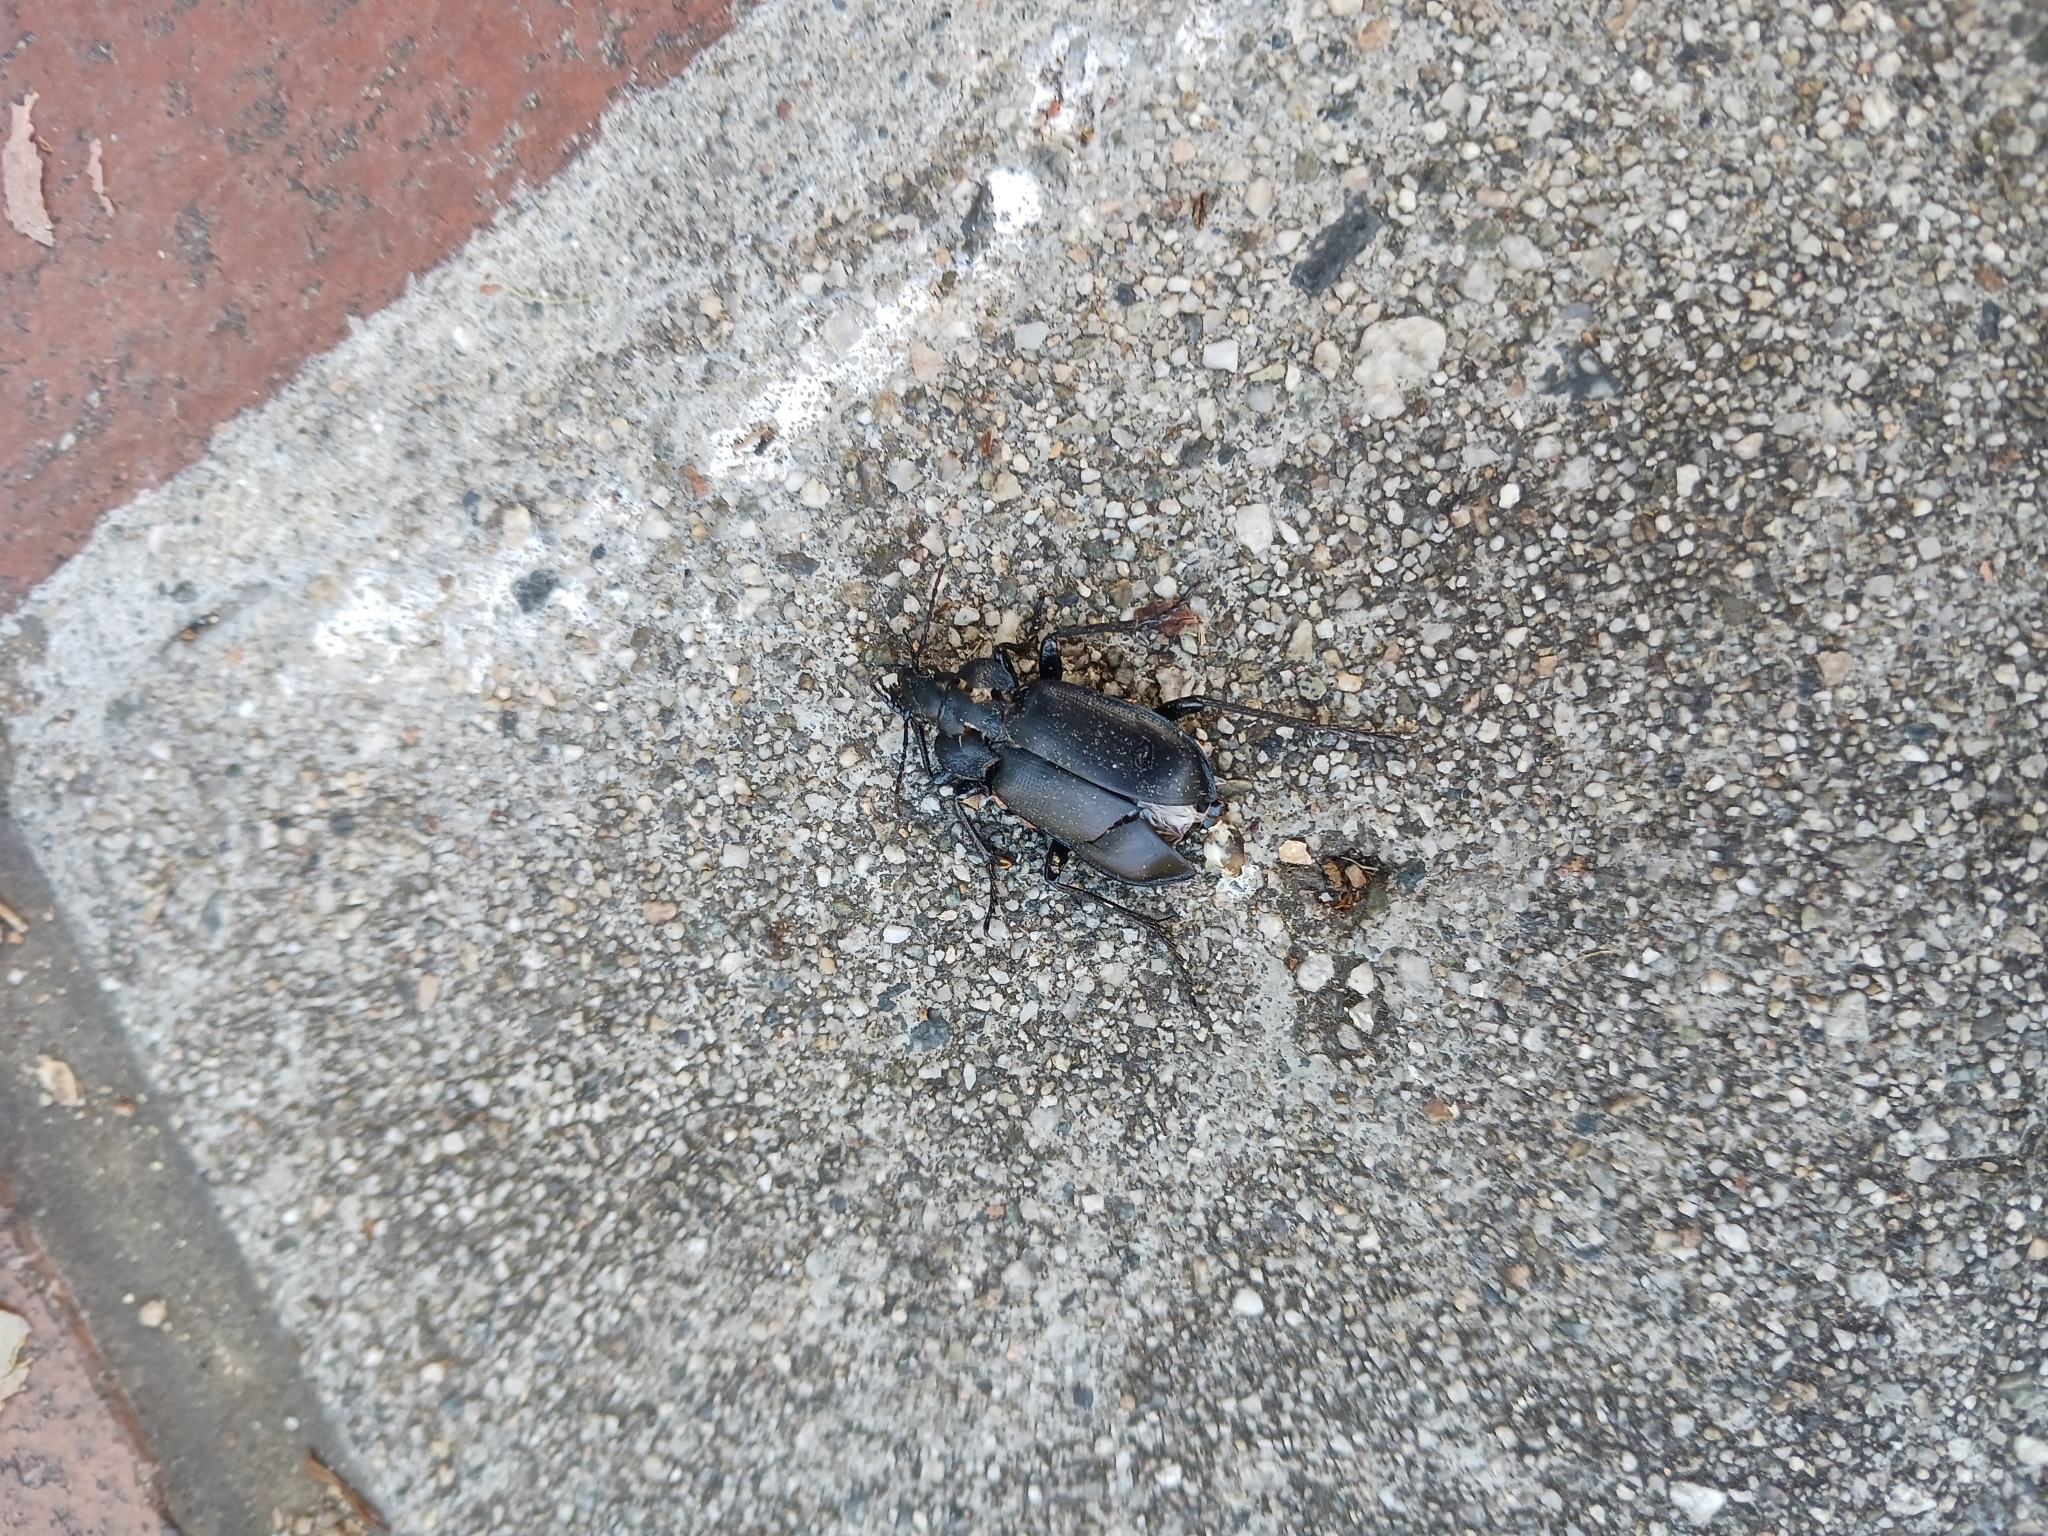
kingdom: Animalia
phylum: Arthropoda
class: Insecta
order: Coleoptera
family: Carabidae
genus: Calosoma
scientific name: Calosoma semilaeve
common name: Black calosoma beetle
